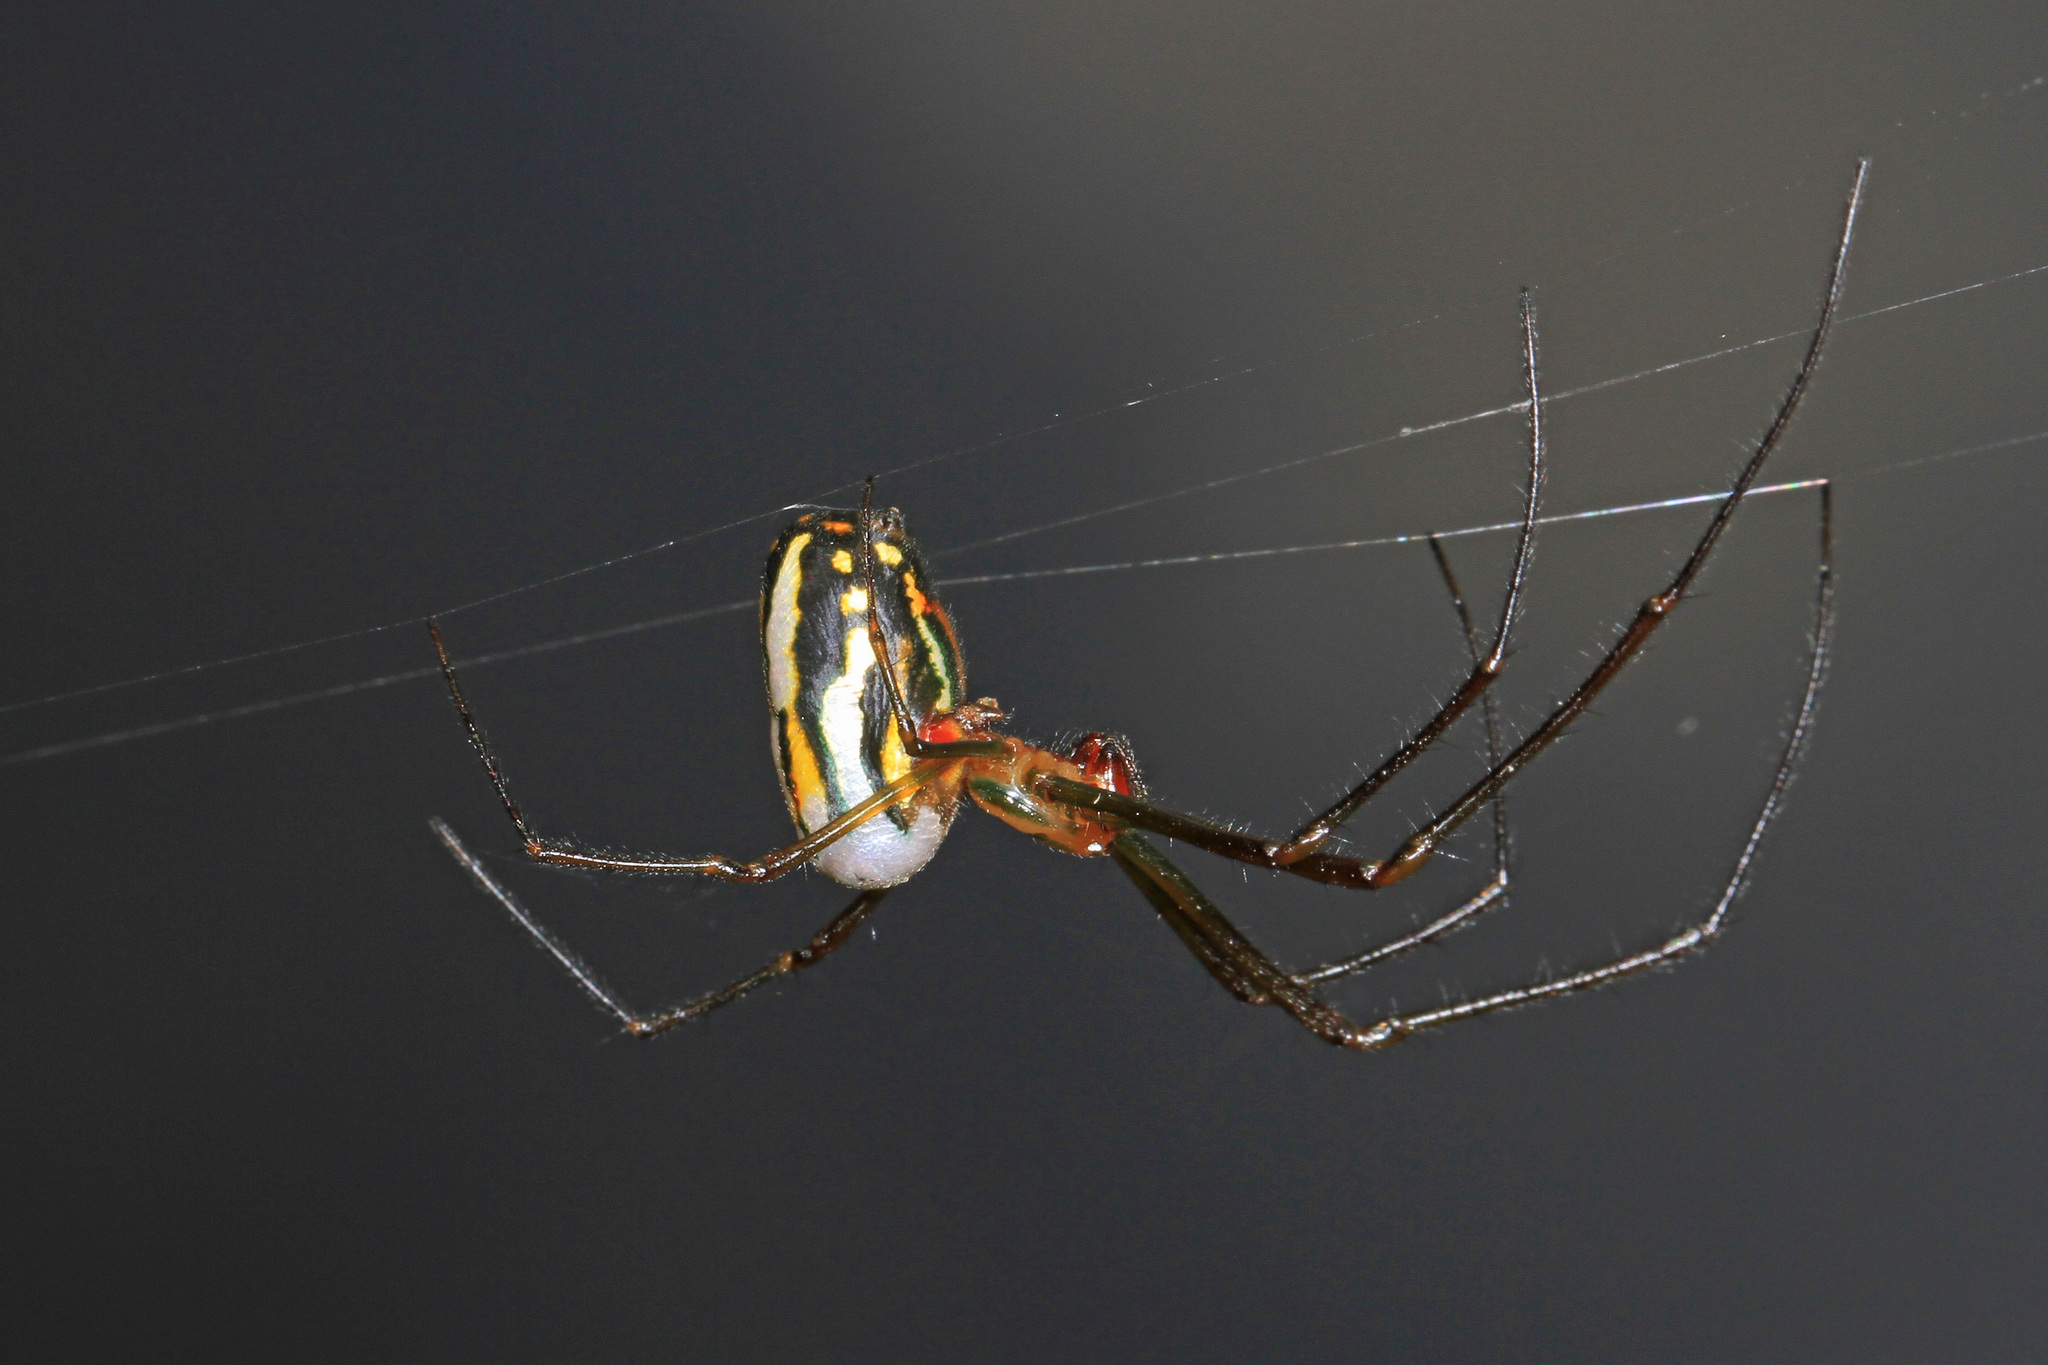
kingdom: Animalia
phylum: Arthropoda
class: Arachnida
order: Araneae
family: Tetragnathidae
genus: Leucauge
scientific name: Leucauge argyra
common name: Longjawed orb weavers
